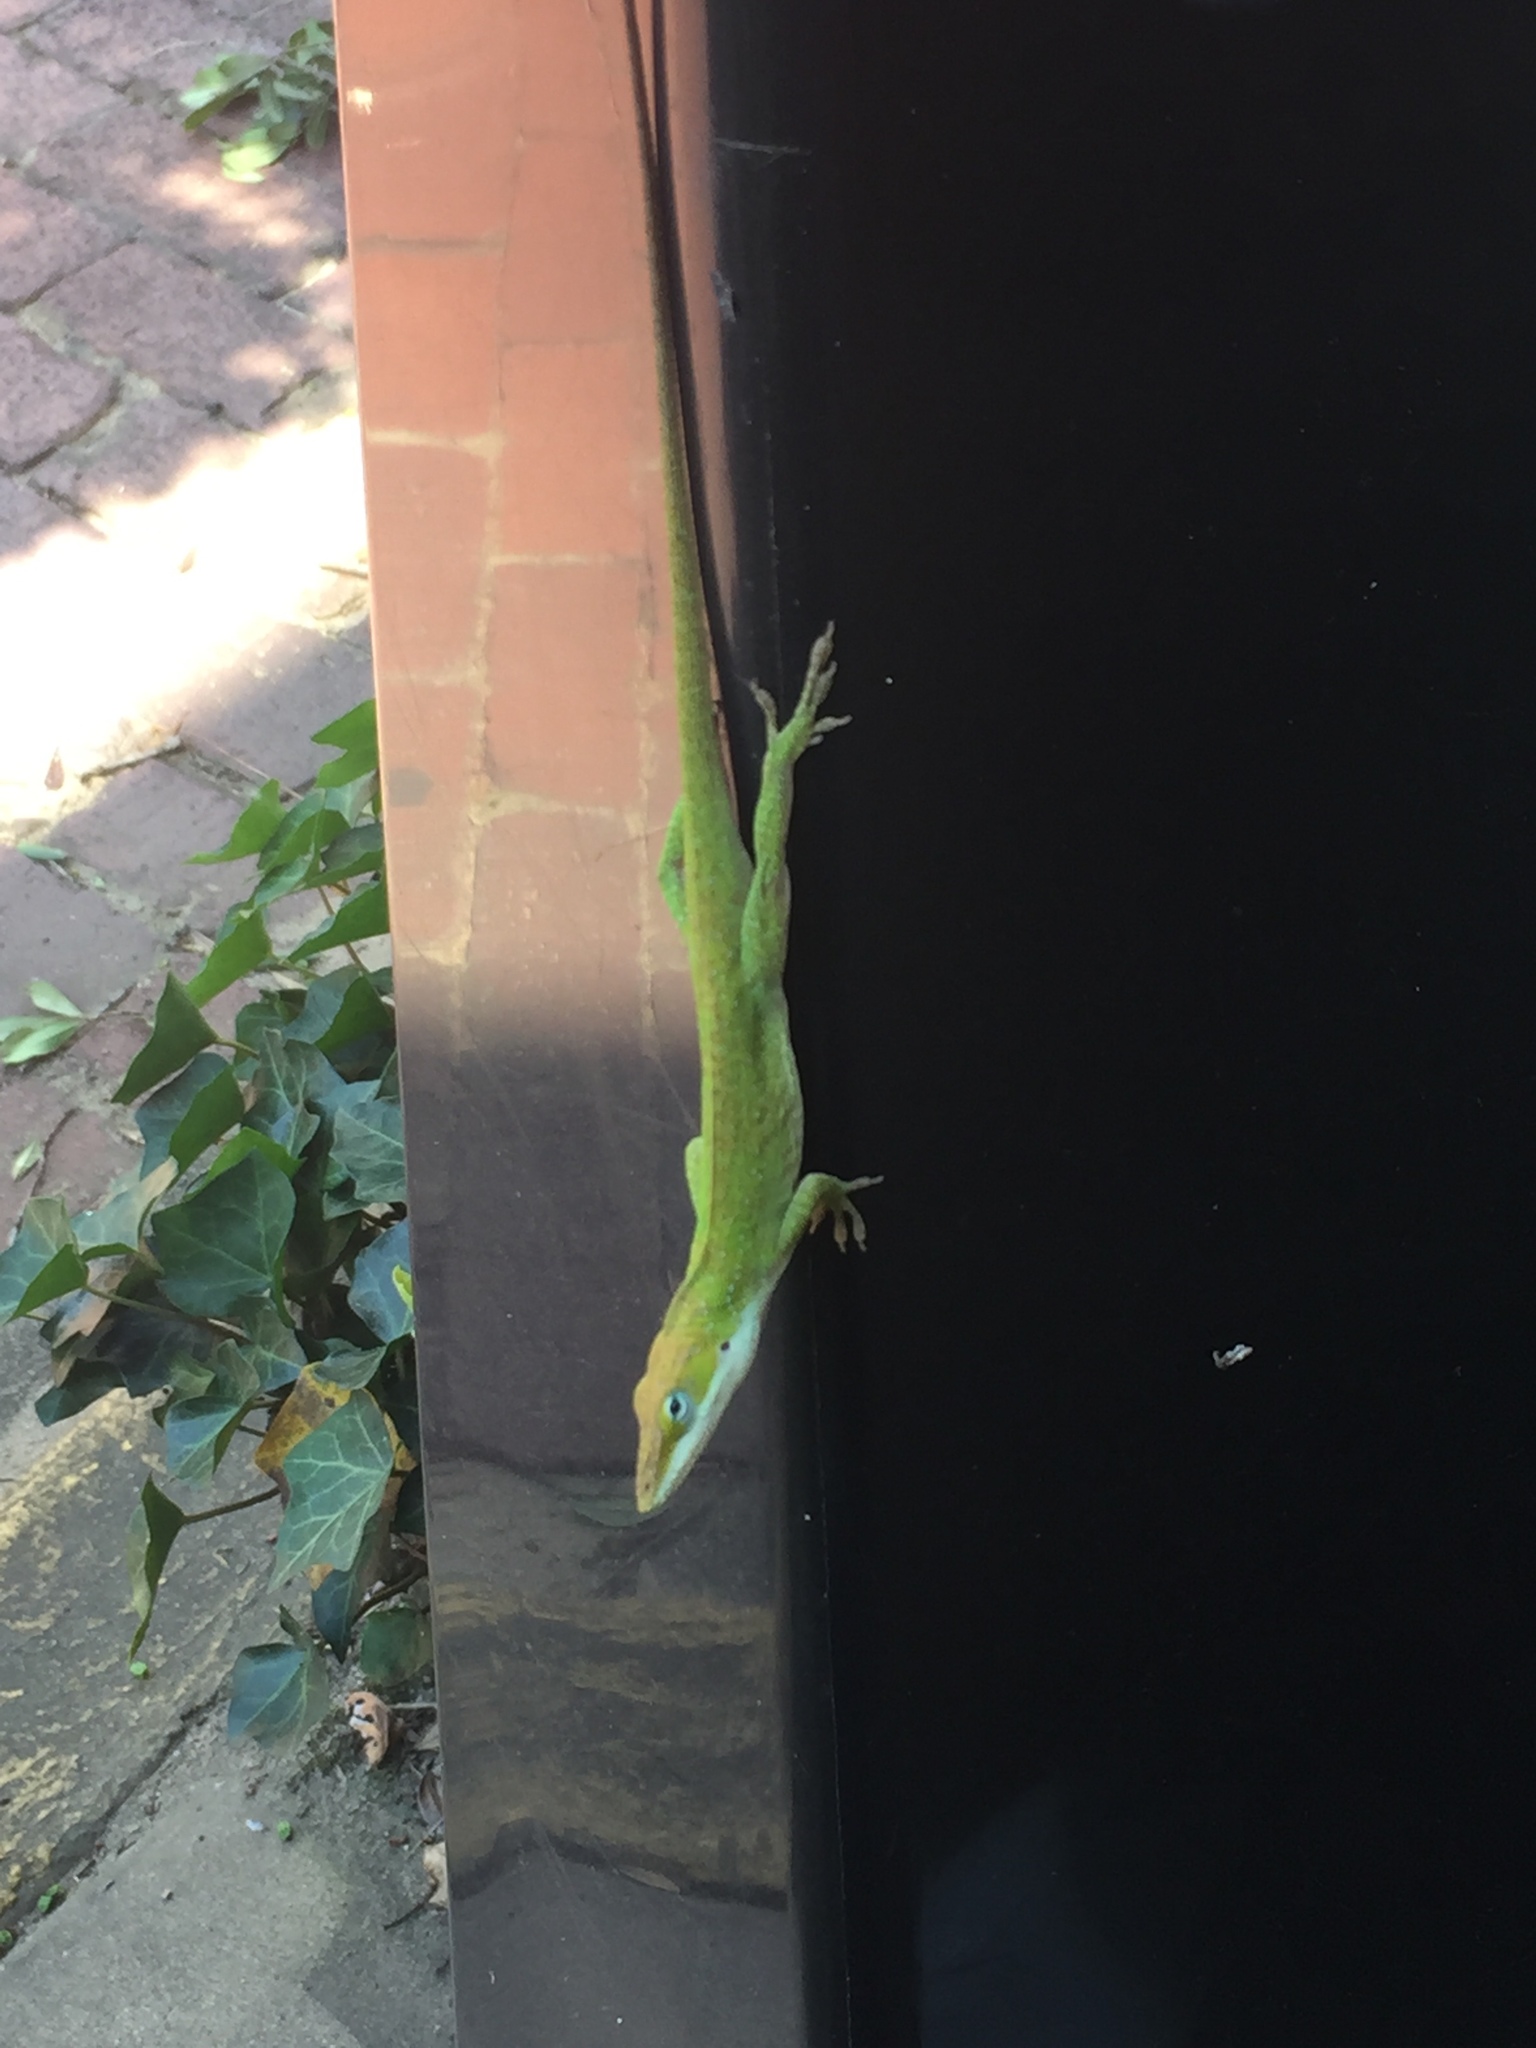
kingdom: Animalia
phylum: Chordata
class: Squamata
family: Dactyloidae
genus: Anolis
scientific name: Anolis carolinensis
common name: Green anole
